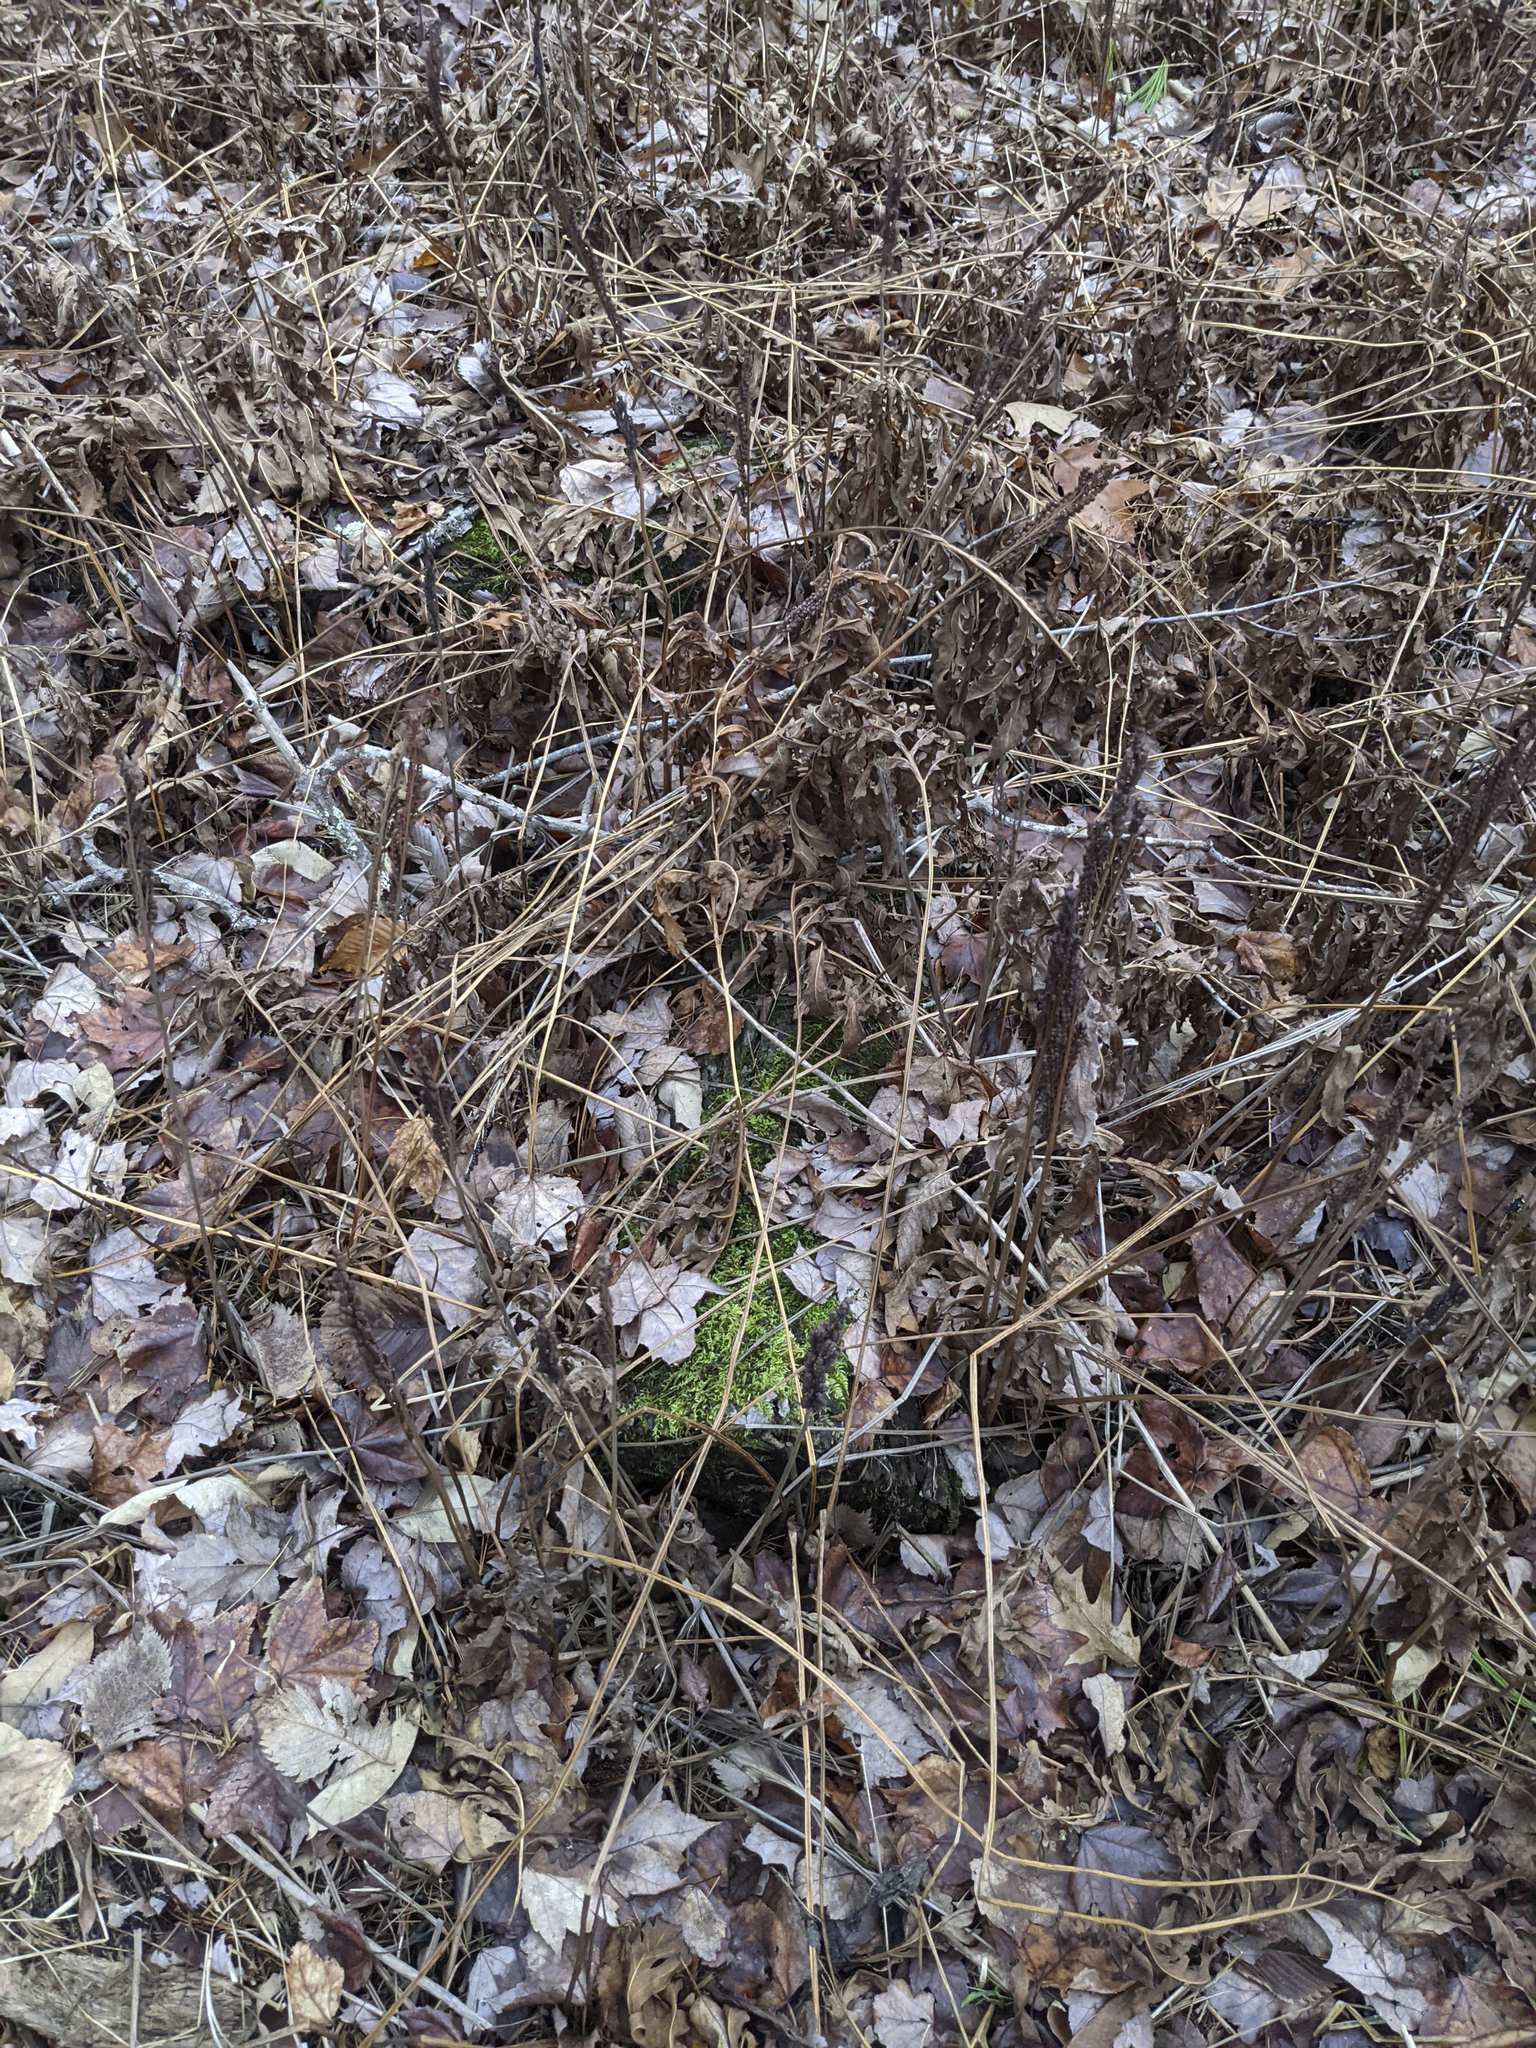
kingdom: Plantae
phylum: Tracheophyta
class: Polypodiopsida
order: Polypodiales
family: Onocleaceae
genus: Onoclea
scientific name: Onoclea sensibilis
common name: Sensitive fern
